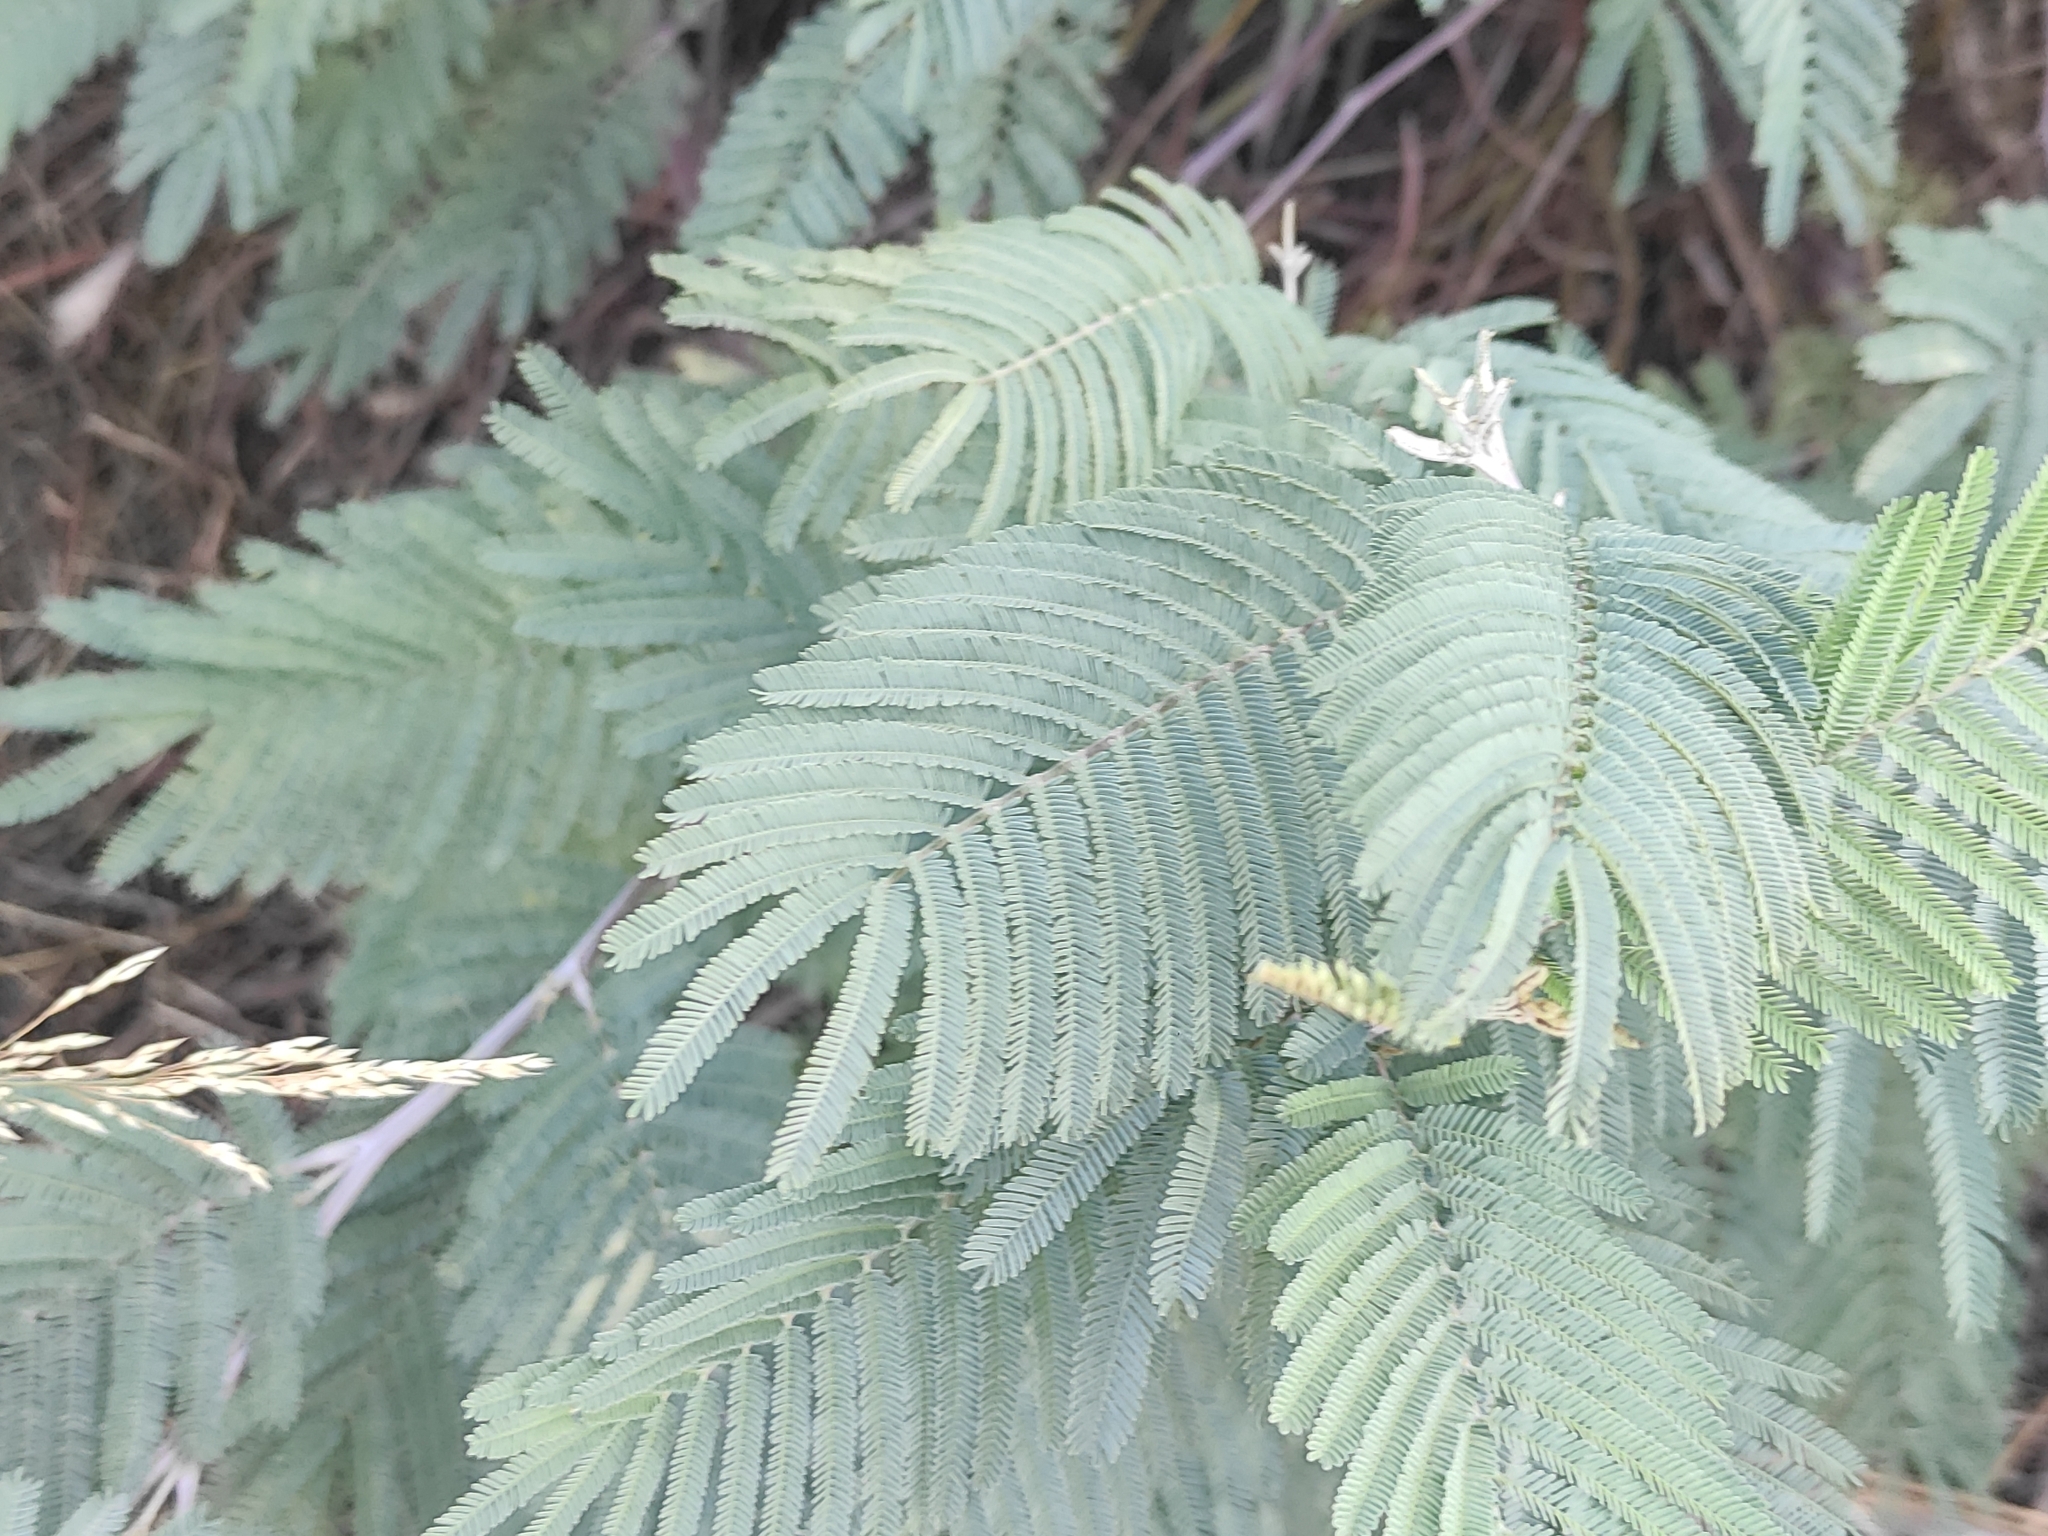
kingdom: Plantae
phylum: Tracheophyta
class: Magnoliopsida
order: Fabales
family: Fabaceae
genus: Acacia
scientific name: Acacia dealbata
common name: Silver wattle
